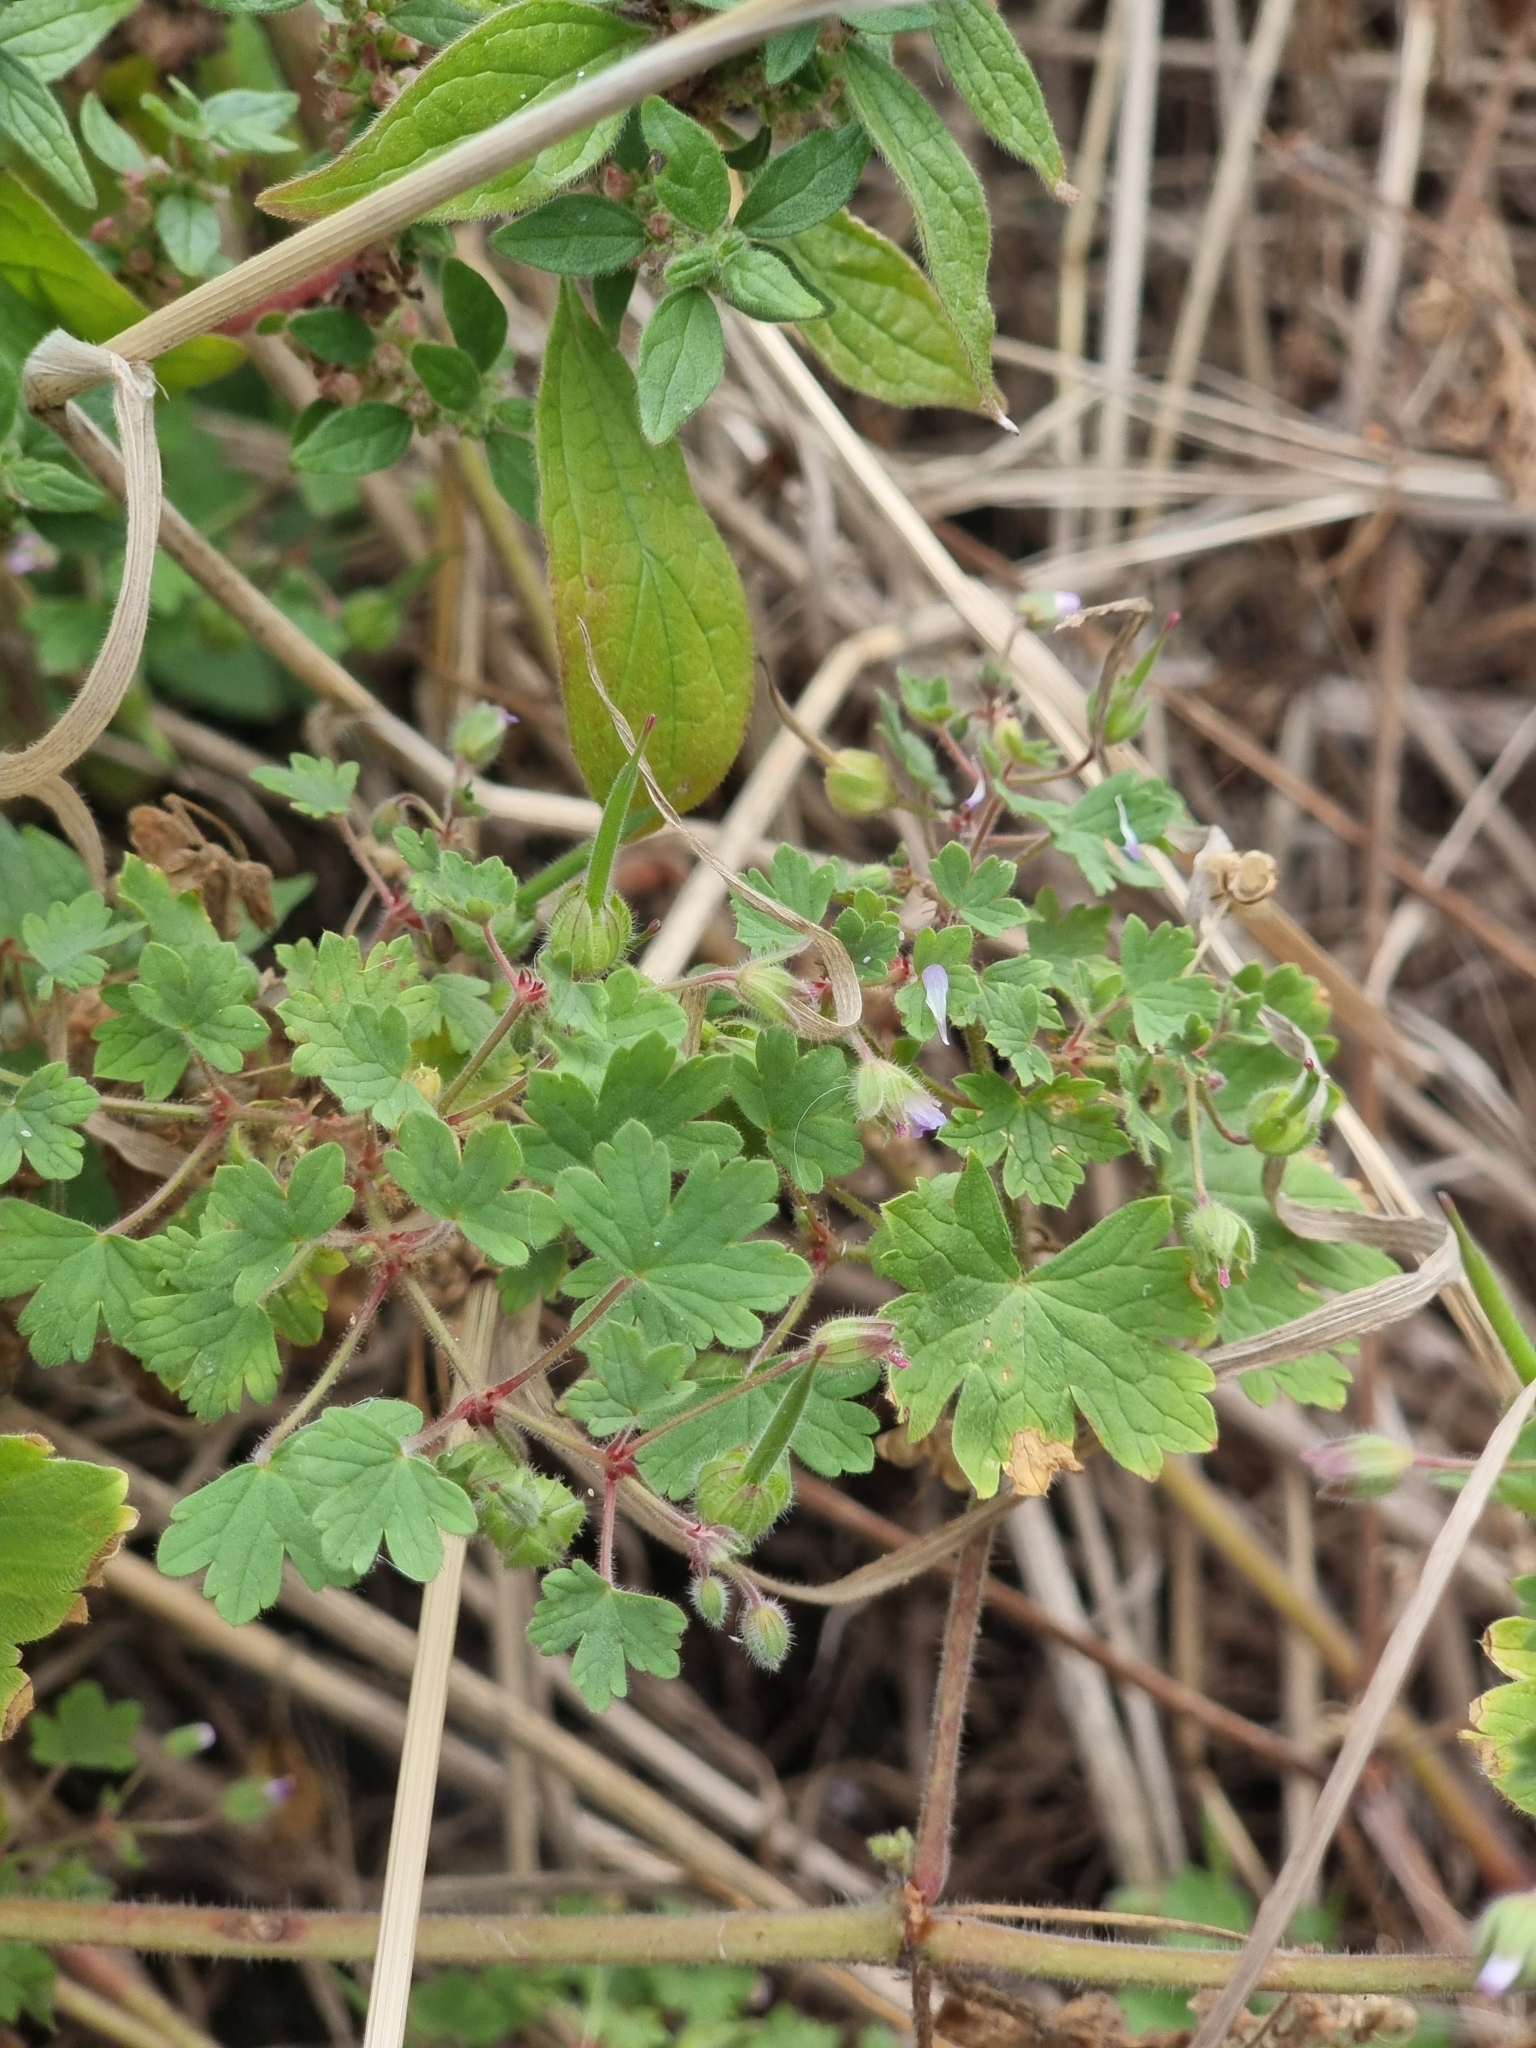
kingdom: Plantae
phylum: Tracheophyta
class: Magnoliopsida
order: Geraniales
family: Geraniaceae
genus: Geranium
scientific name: Geranium rotundifolium
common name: Round-leaved crane's-bill
